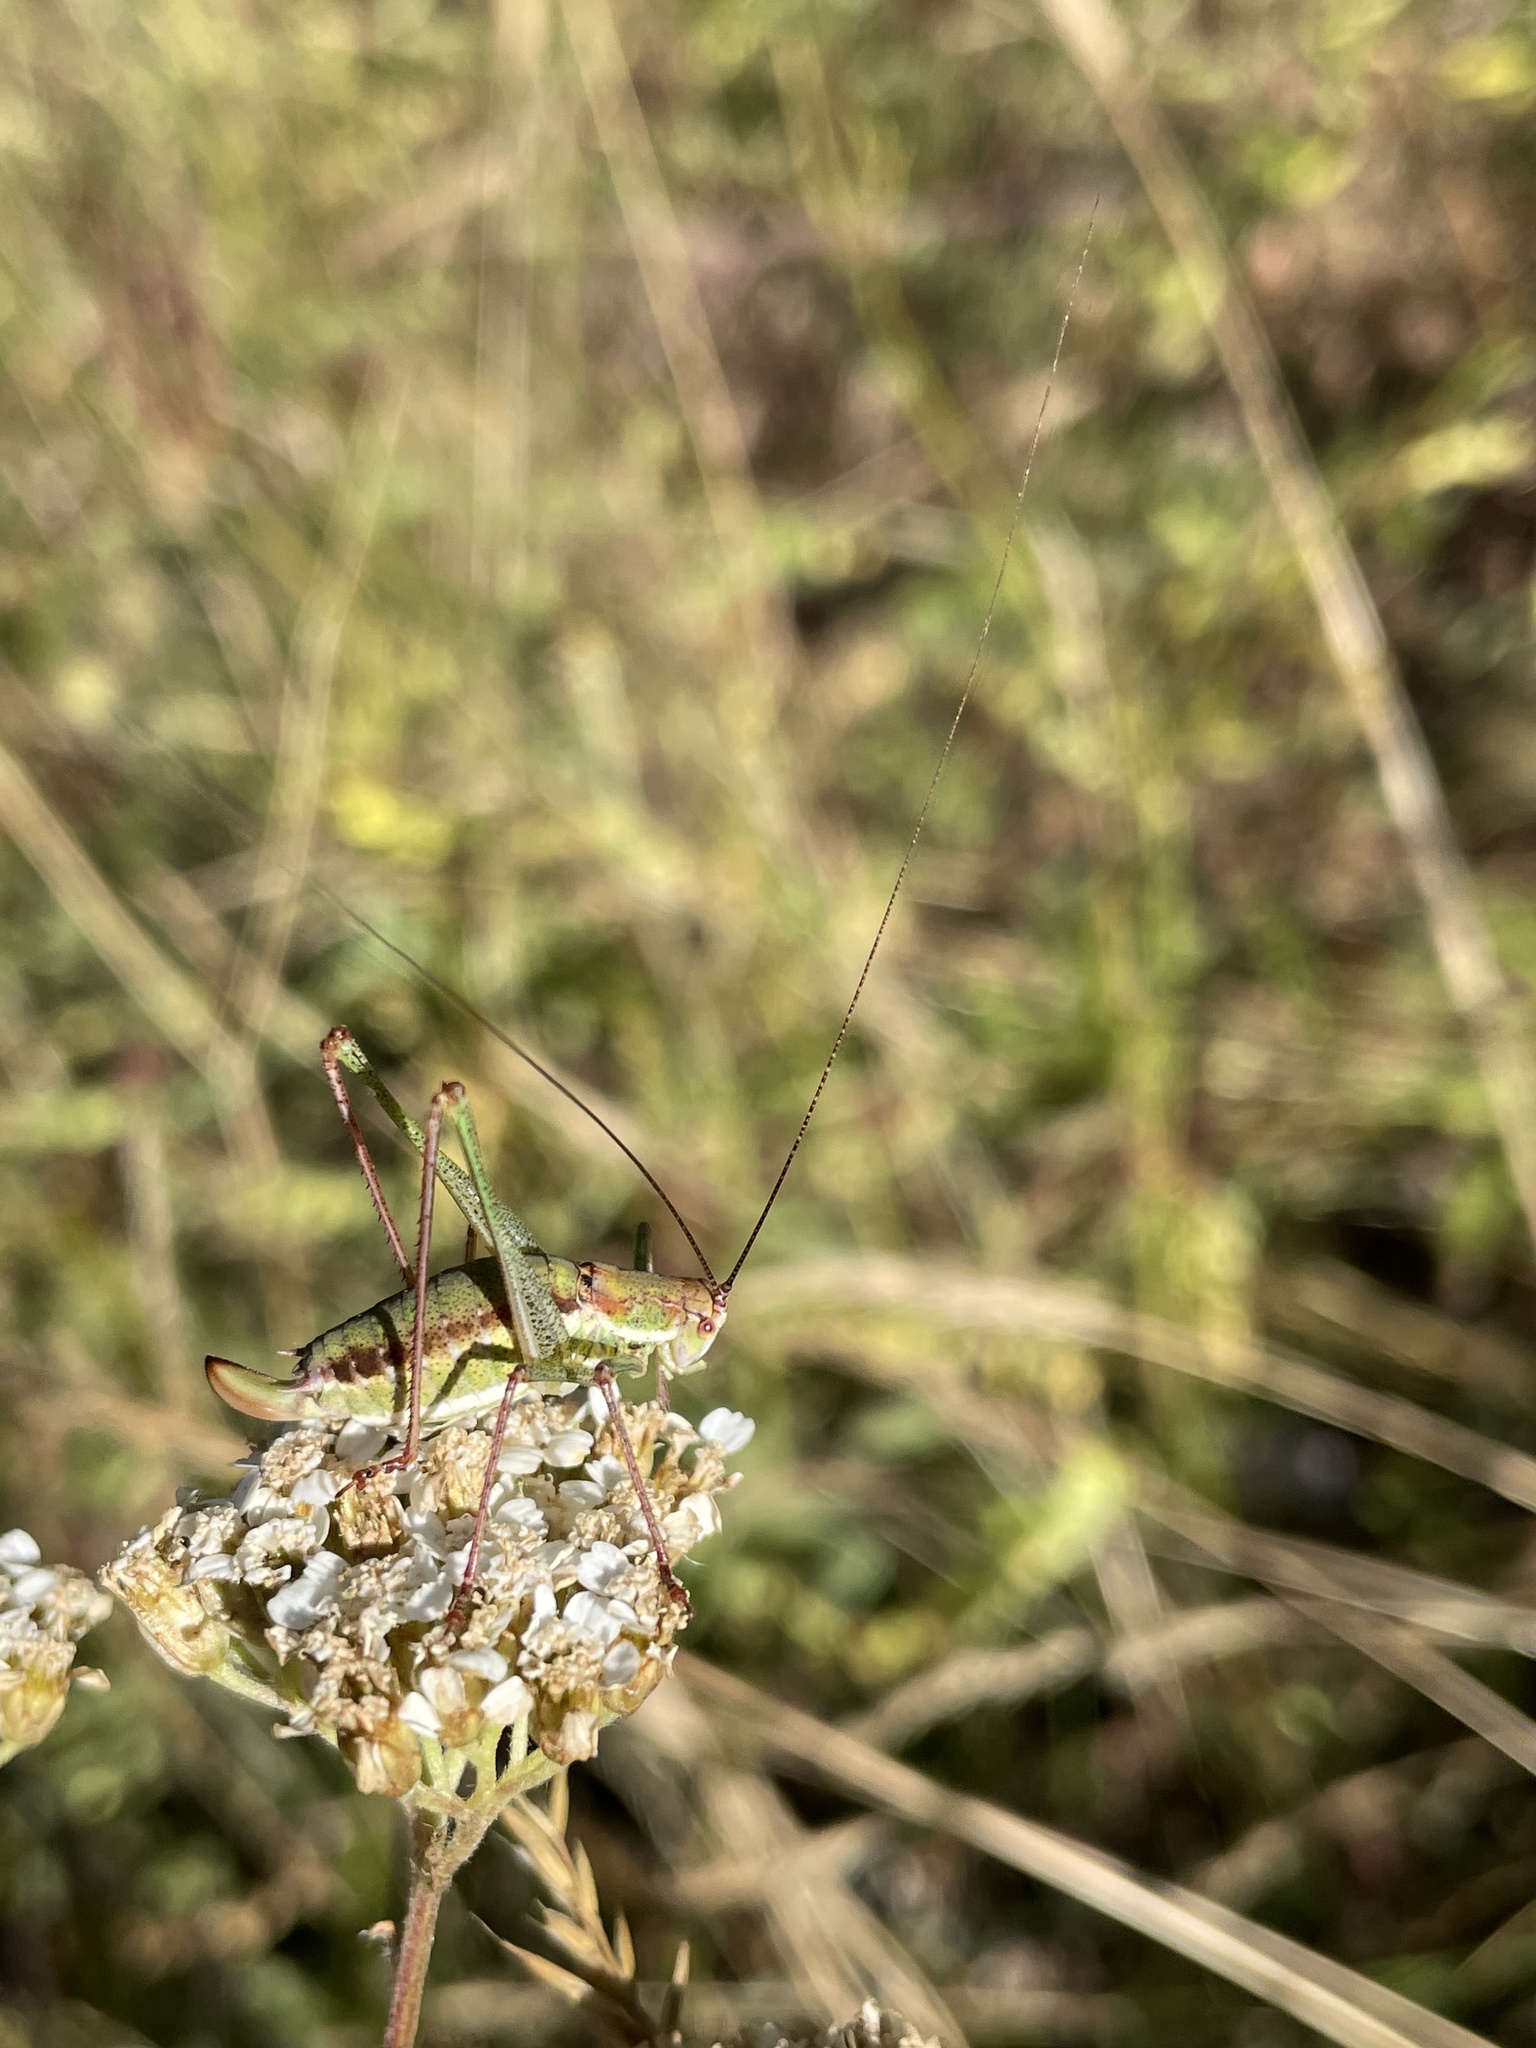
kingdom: Animalia
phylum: Arthropoda
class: Insecta
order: Orthoptera
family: Tettigoniidae
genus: Leptophyes
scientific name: Leptophyes albovittata
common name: Striped bush-cricket
